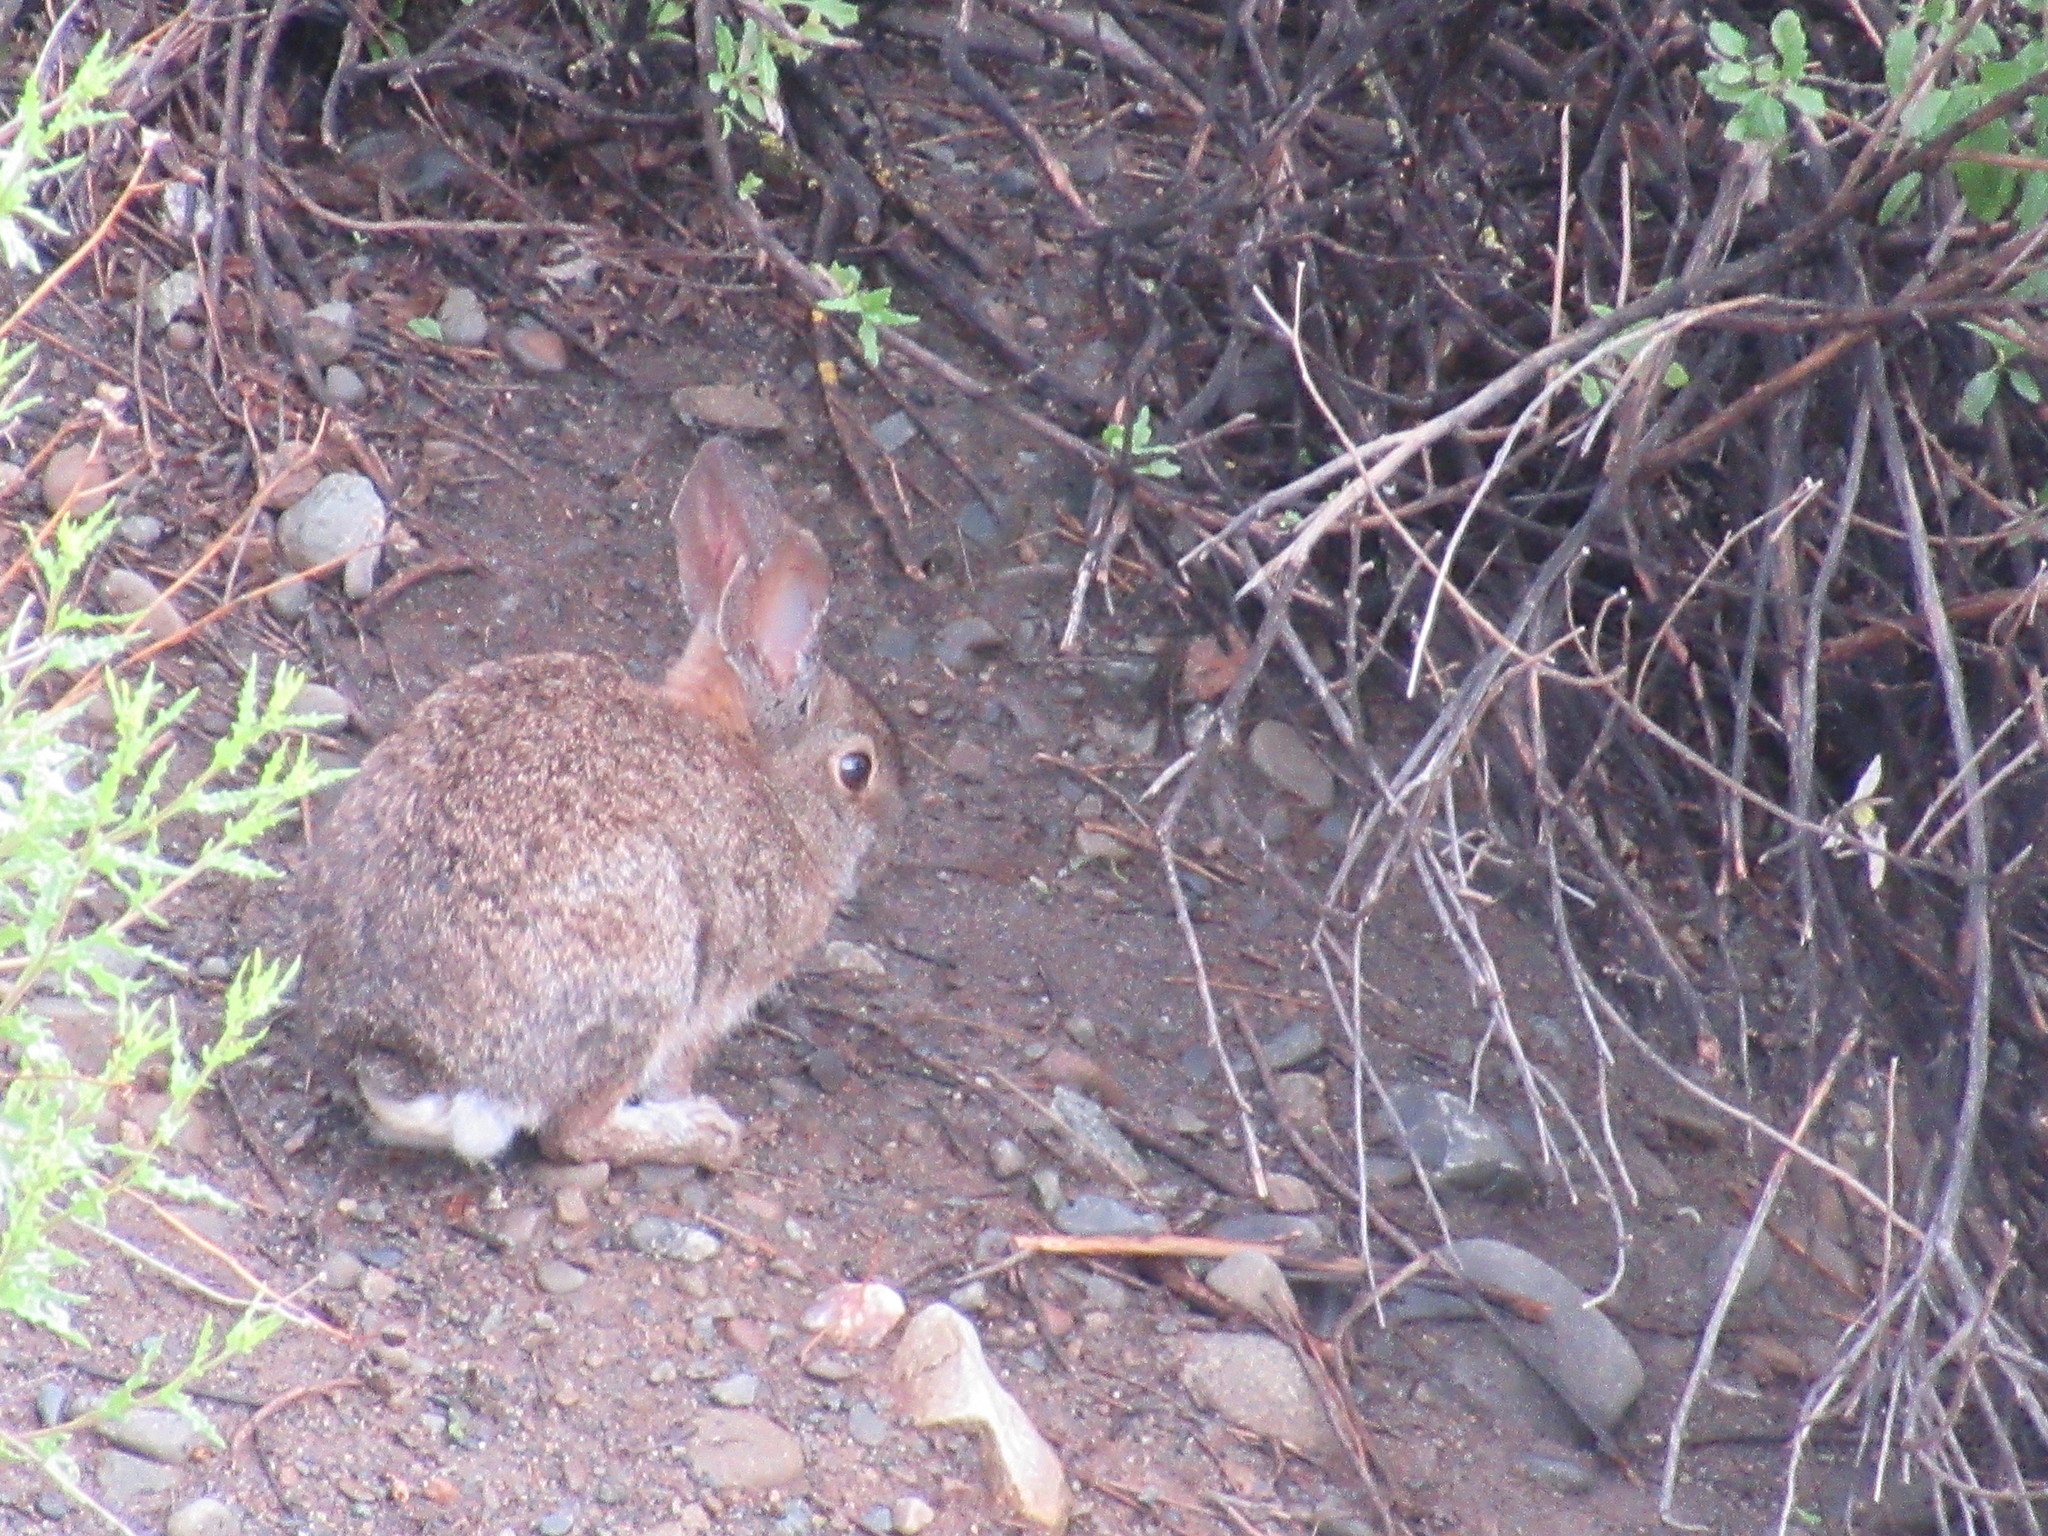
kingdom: Animalia
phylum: Chordata
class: Mammalia
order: Lagomorpha
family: Leporidae
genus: Sylvilagus
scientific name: Sylvilagus bachmani
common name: Brush rabbit
